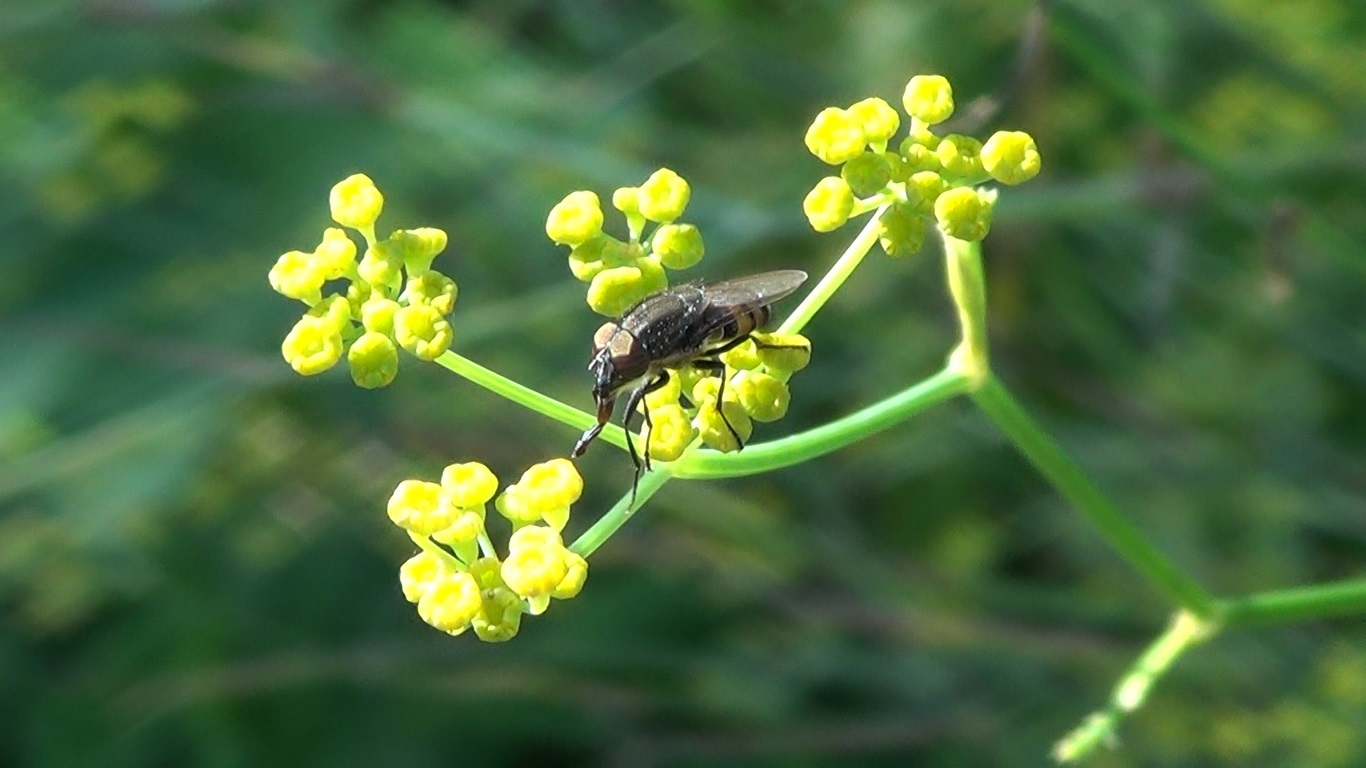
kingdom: Animalia
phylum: Arthropoda
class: Insecta
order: Diptera
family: Calliphoridae
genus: Stomorhina
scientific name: Stomorhina lunata
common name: Locust blowfly
